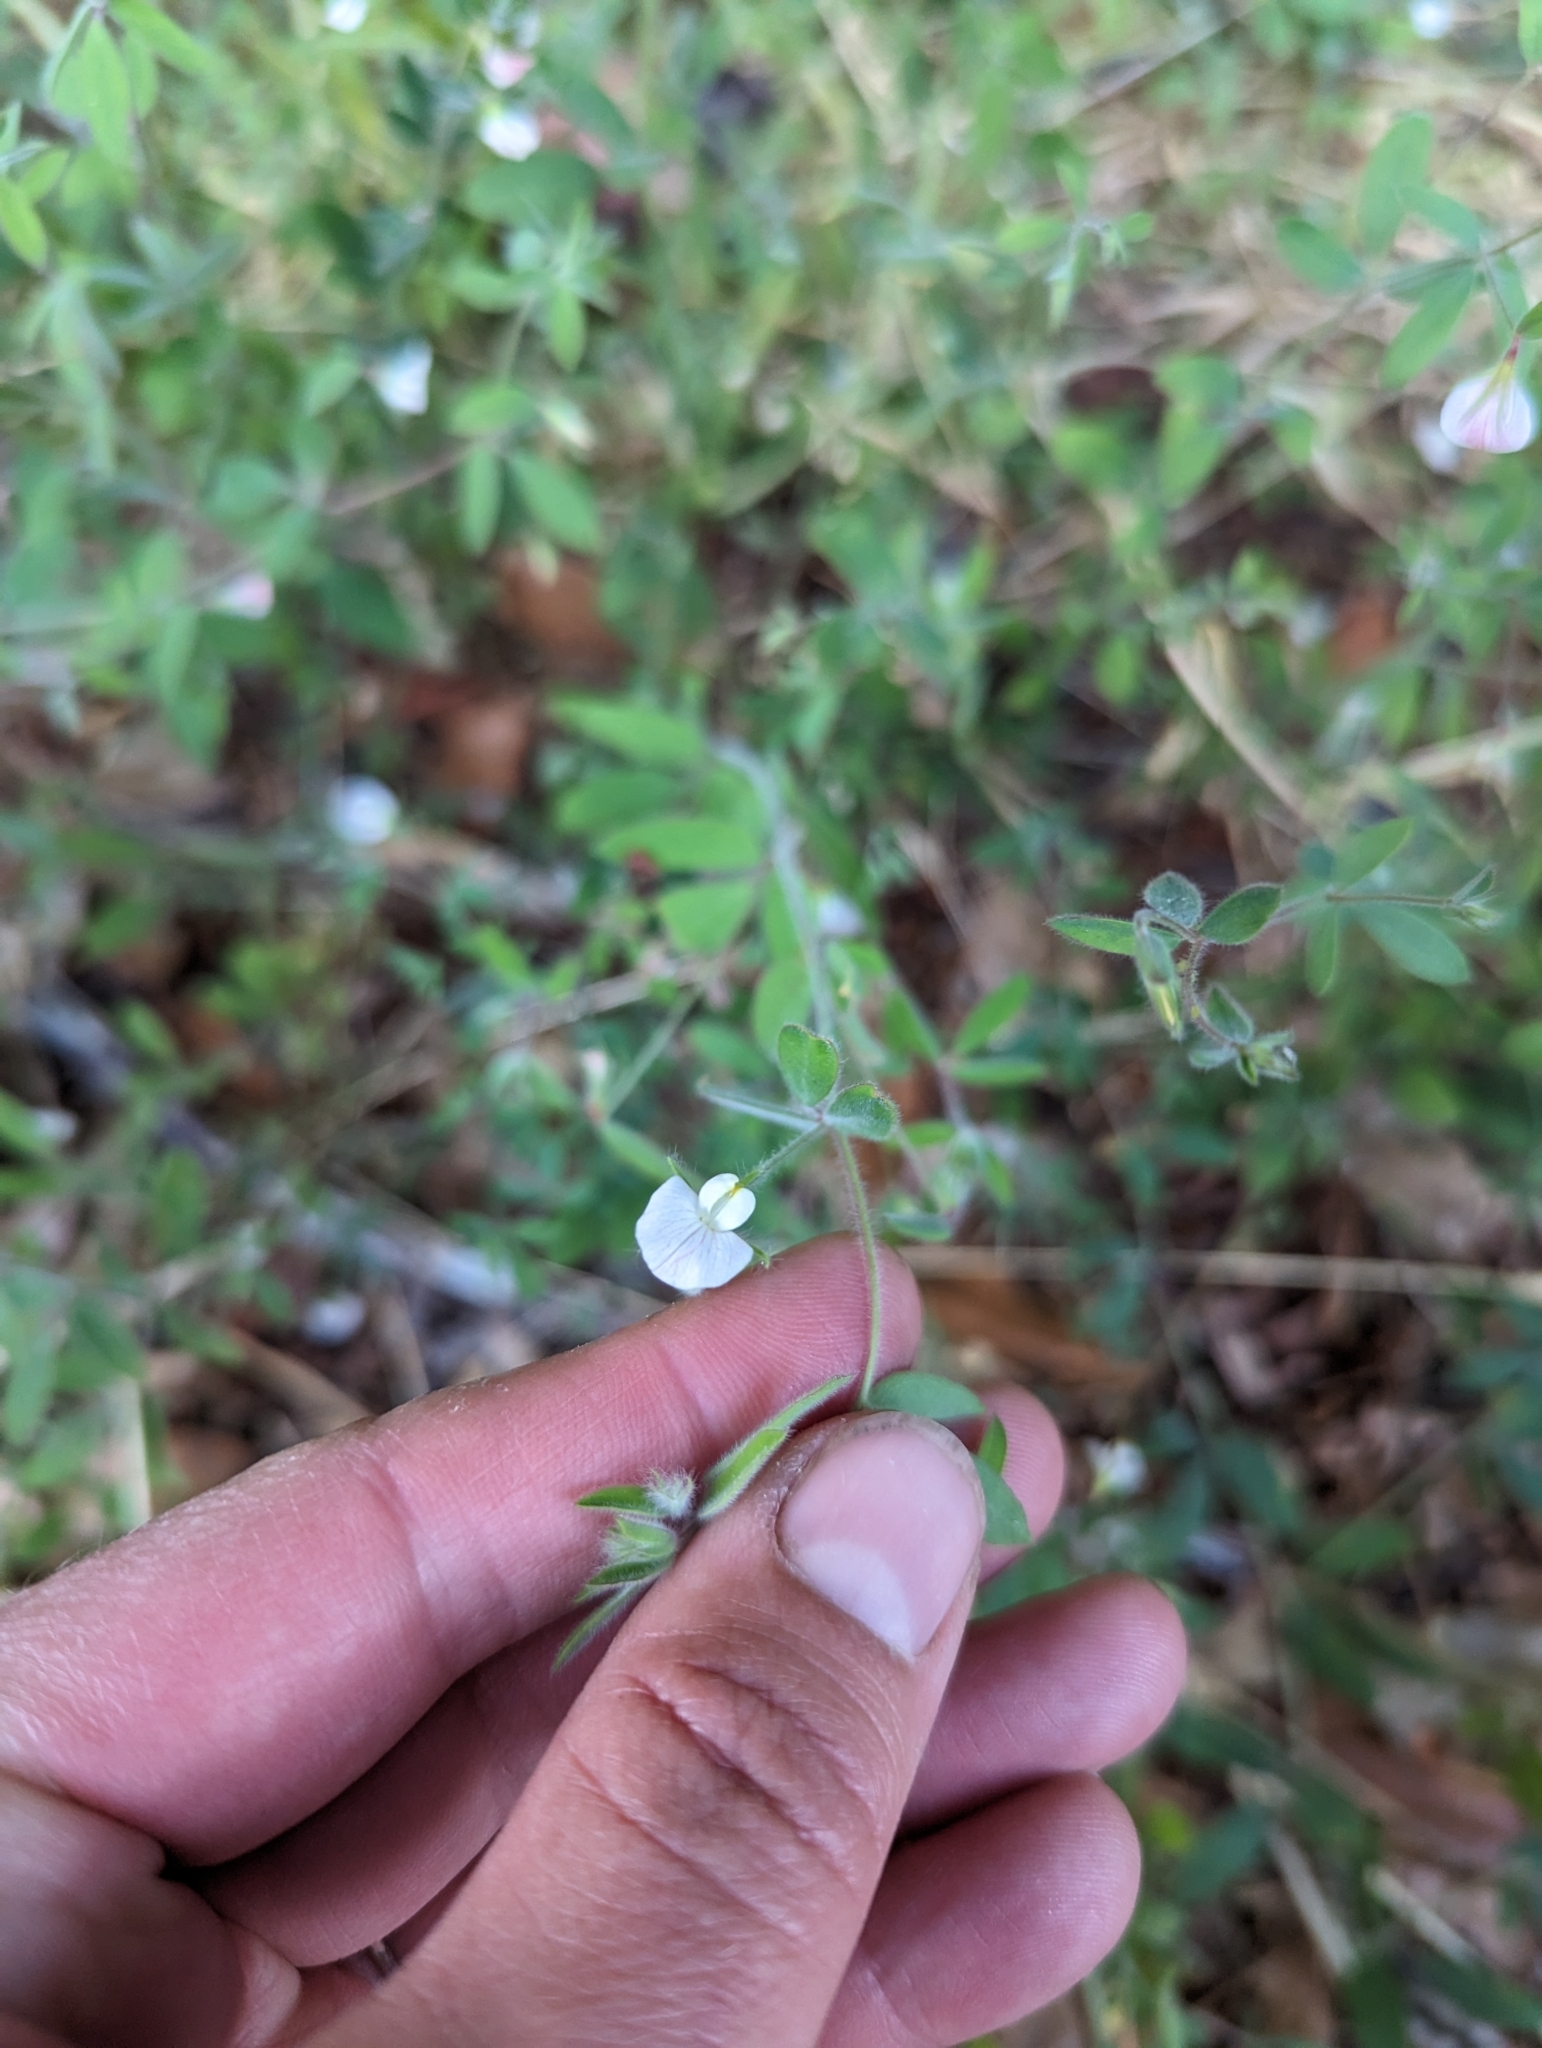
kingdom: Plantae
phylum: Tracheophyta
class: Magnoliopsida
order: Fabales
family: Fabaceae
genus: Acmispon
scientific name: Acmispon americanus
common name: American bird's-foot trefoil
